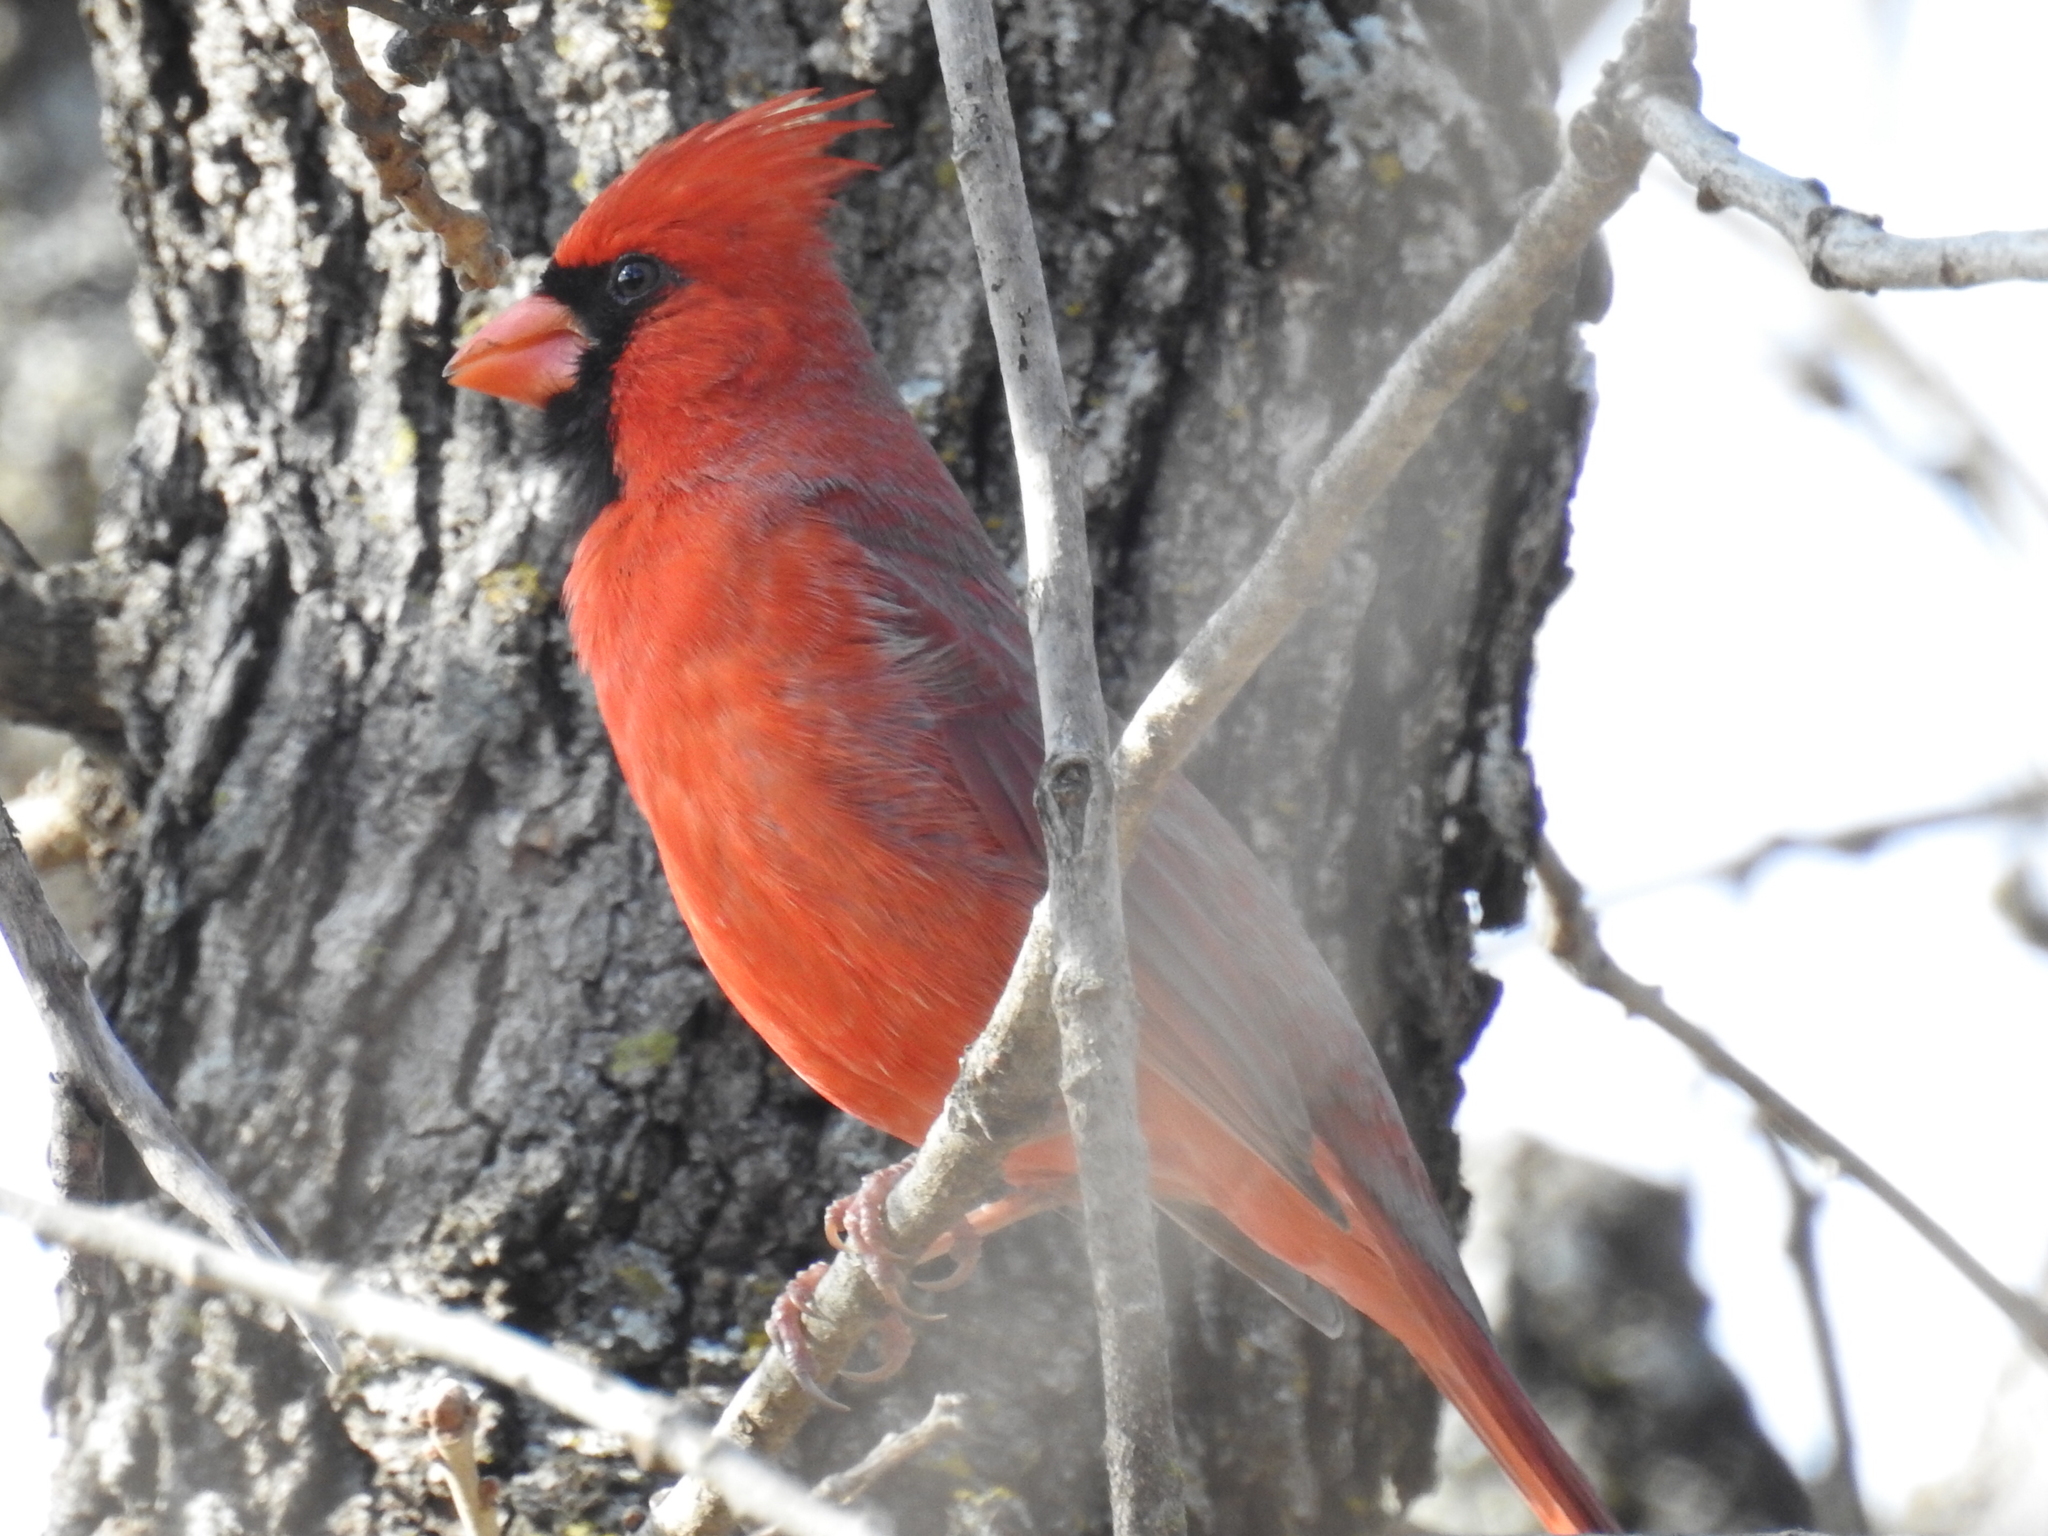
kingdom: Animalia
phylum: Chordata
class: Aves
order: Passeriformes
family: Cardinalidae
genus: Cardinalis
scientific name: Cardinalis cardinalis
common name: Northern cardinal
